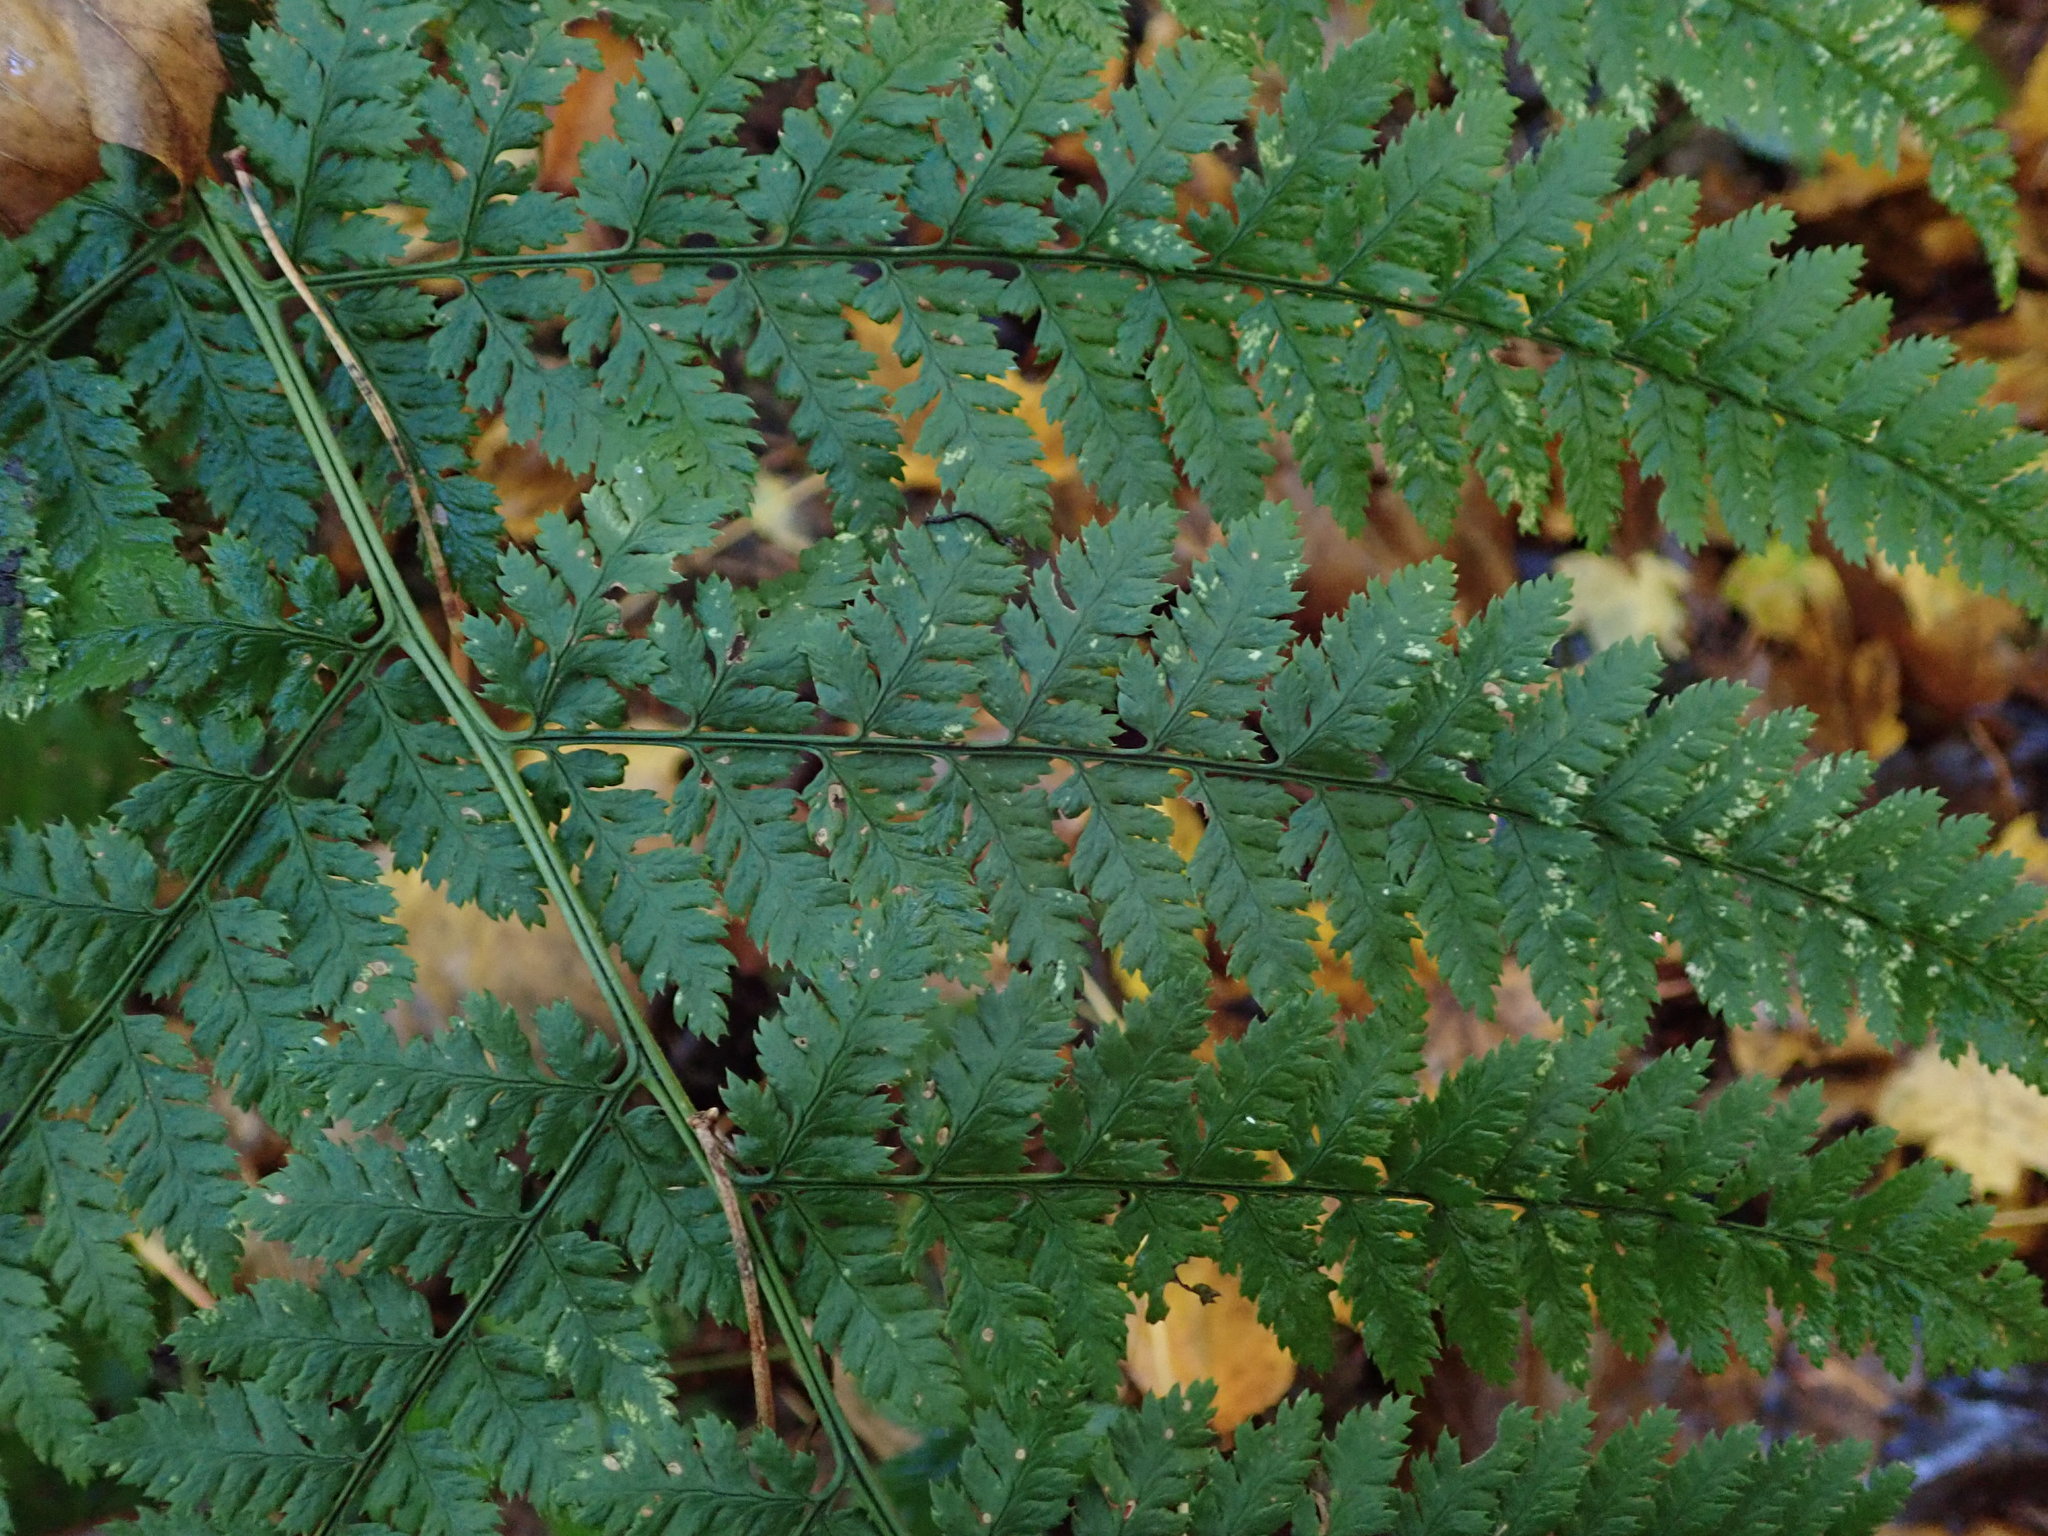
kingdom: Plantae
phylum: Tracheophyta
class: Polypodiopsida
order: Polypodiales
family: Dryopteridaceae
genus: Dryopteris
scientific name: Dryopteris dilatata
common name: Broad buckler-fern
